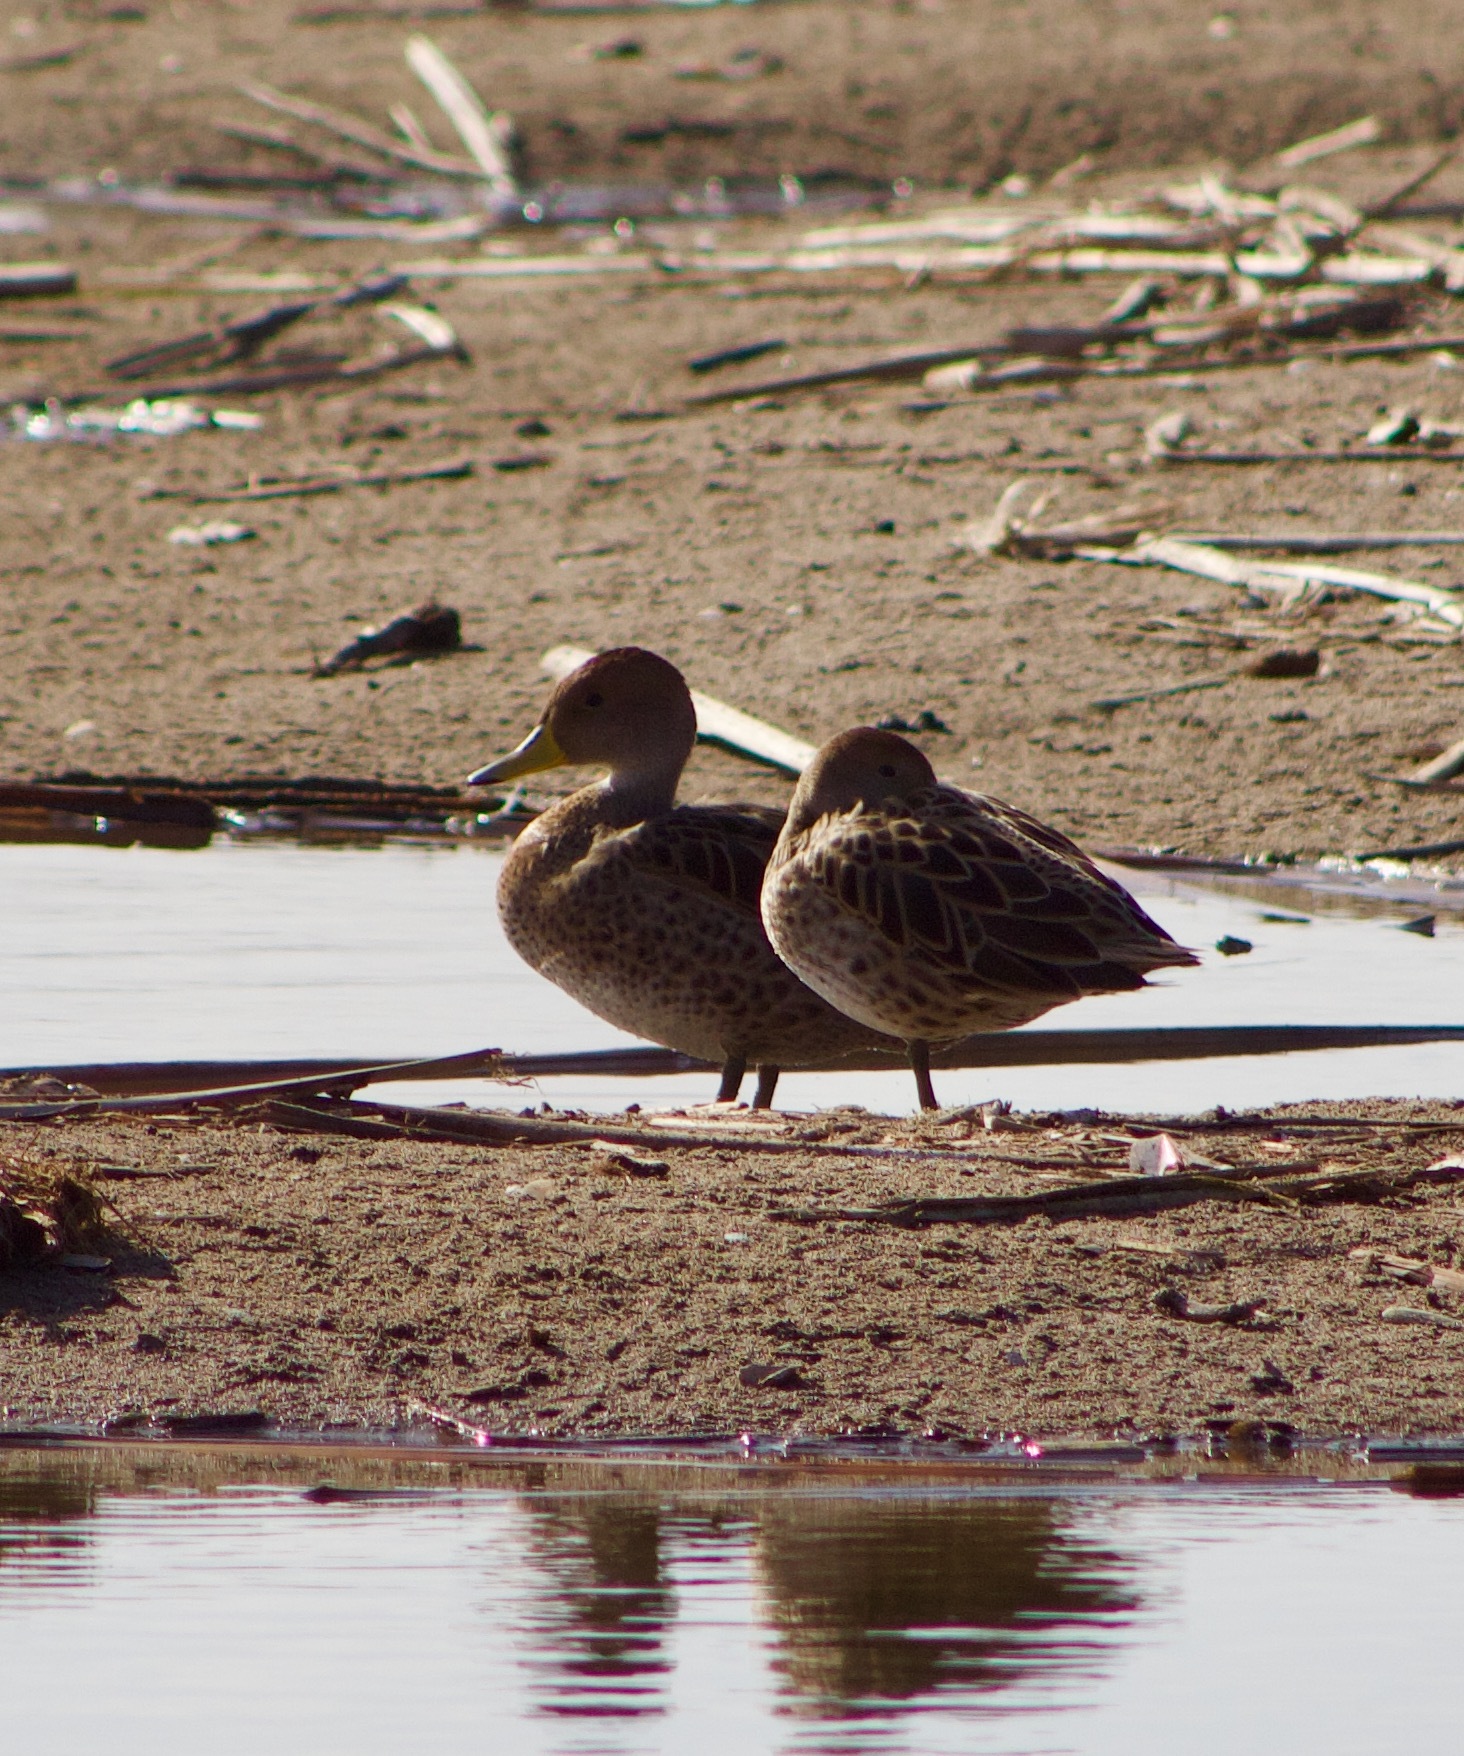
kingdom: Animalia
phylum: Chordata
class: Aves
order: Anseriformes
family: Anatidae
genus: Anas
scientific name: Anas georgica
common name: Yellow-billed pintail
